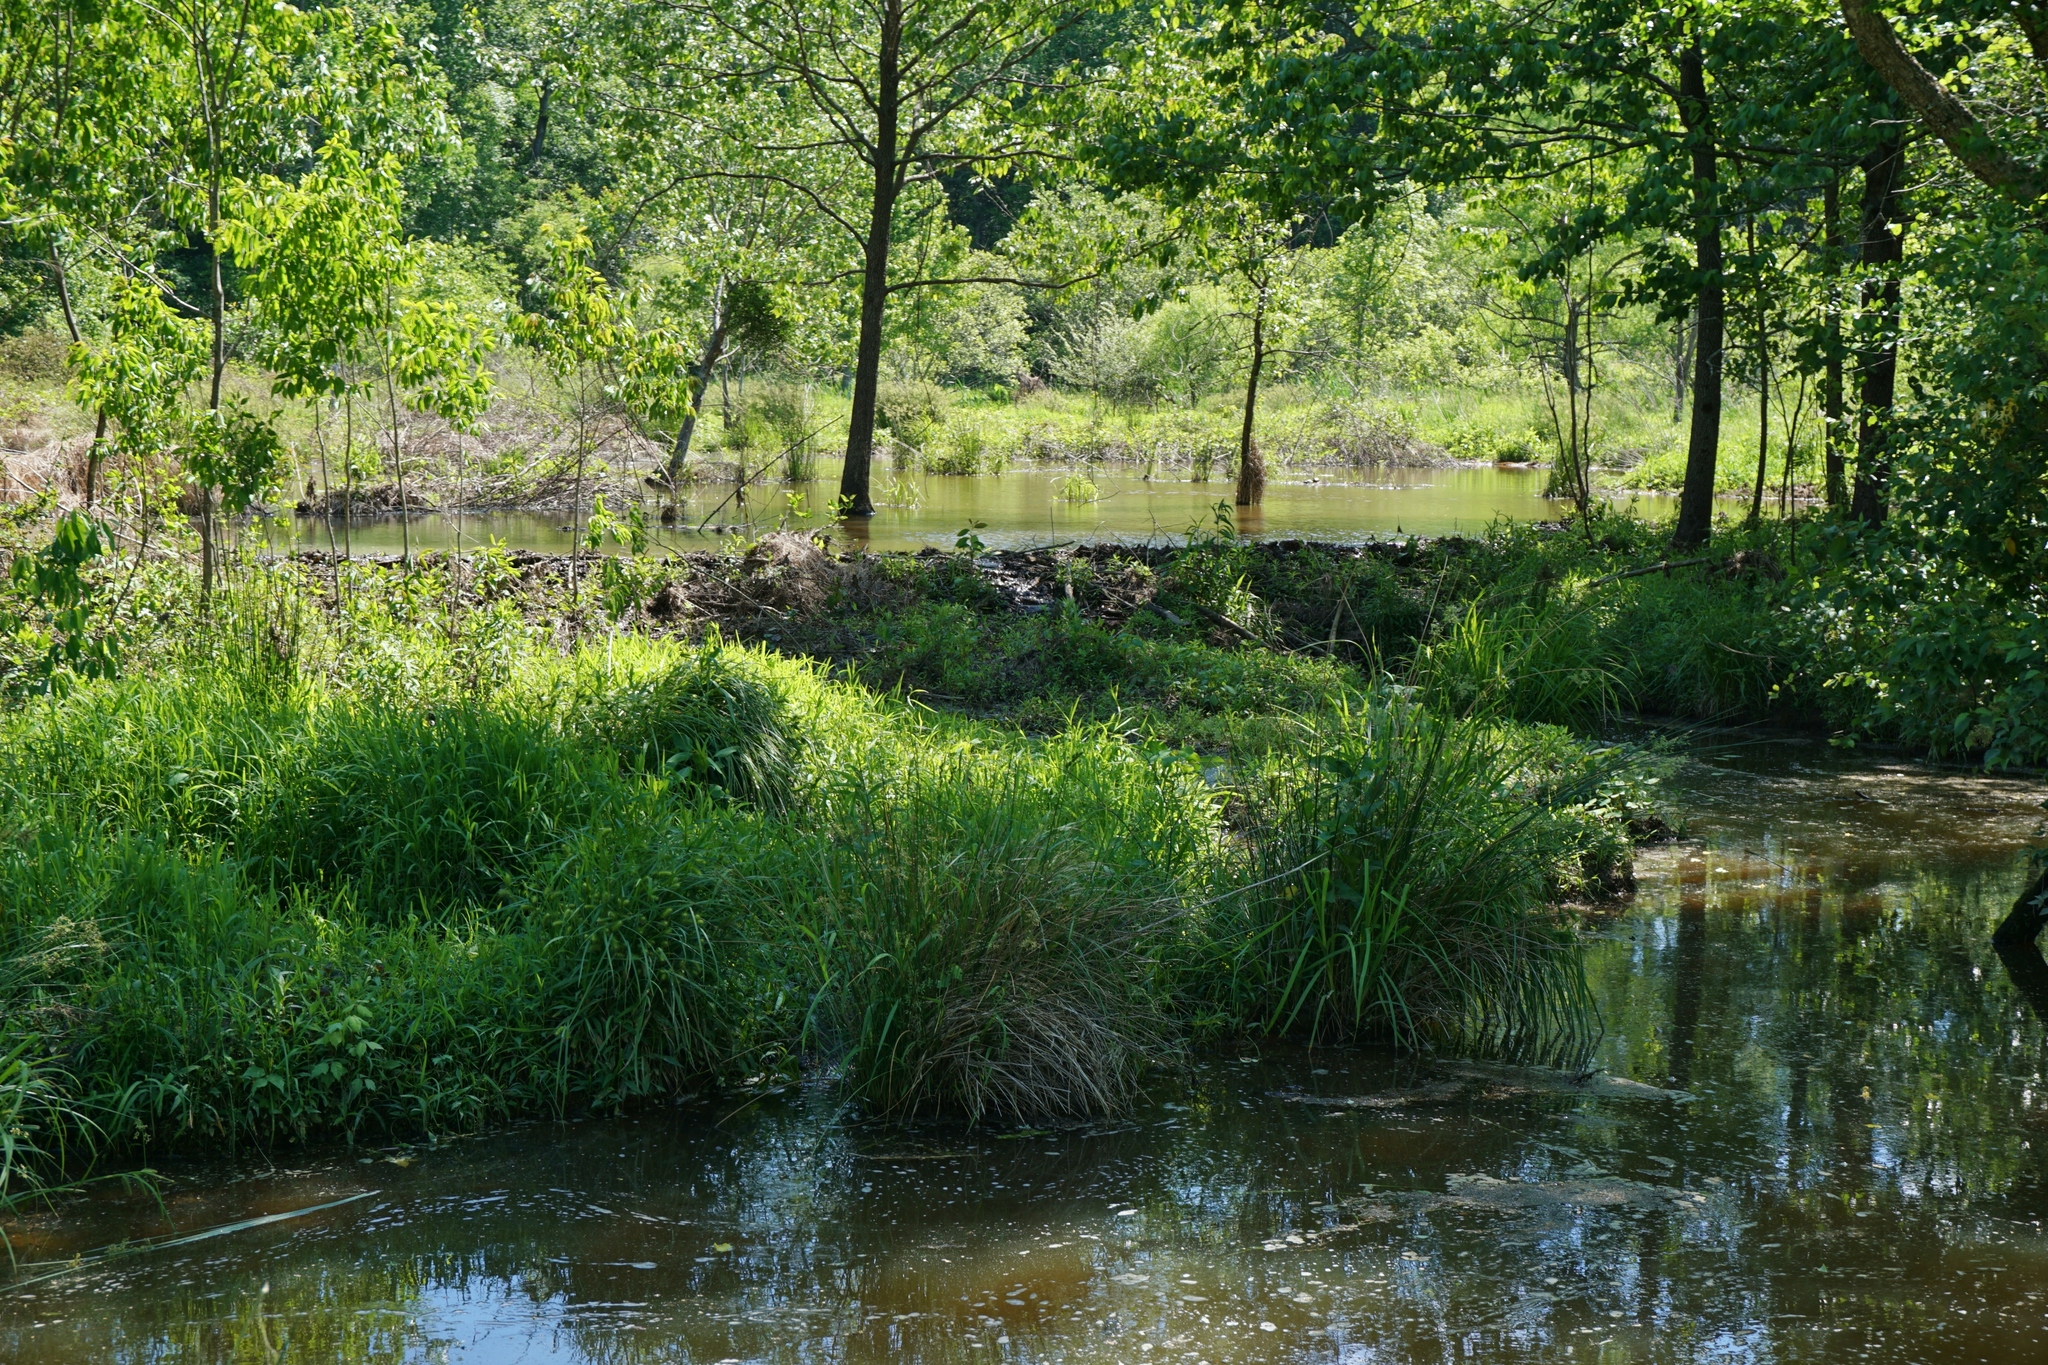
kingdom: Animalia
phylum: Chordata
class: Mammalia
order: Rodentia
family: Castoridae
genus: Castor
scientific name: Castor canadensis
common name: American beaver
